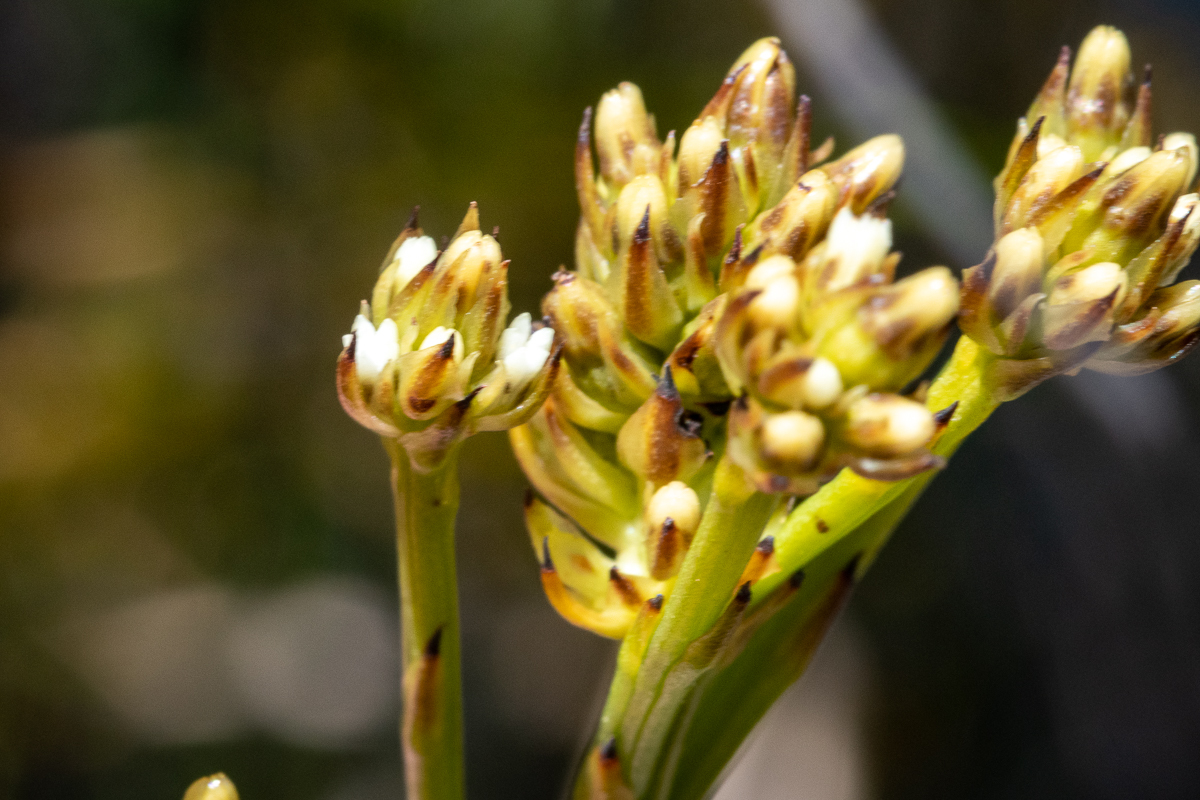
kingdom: Plantae
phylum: Tracheophyta
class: Magnoliopsida
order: Santalales
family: Thesiaceae
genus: Thesium
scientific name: Thesium spicatum
